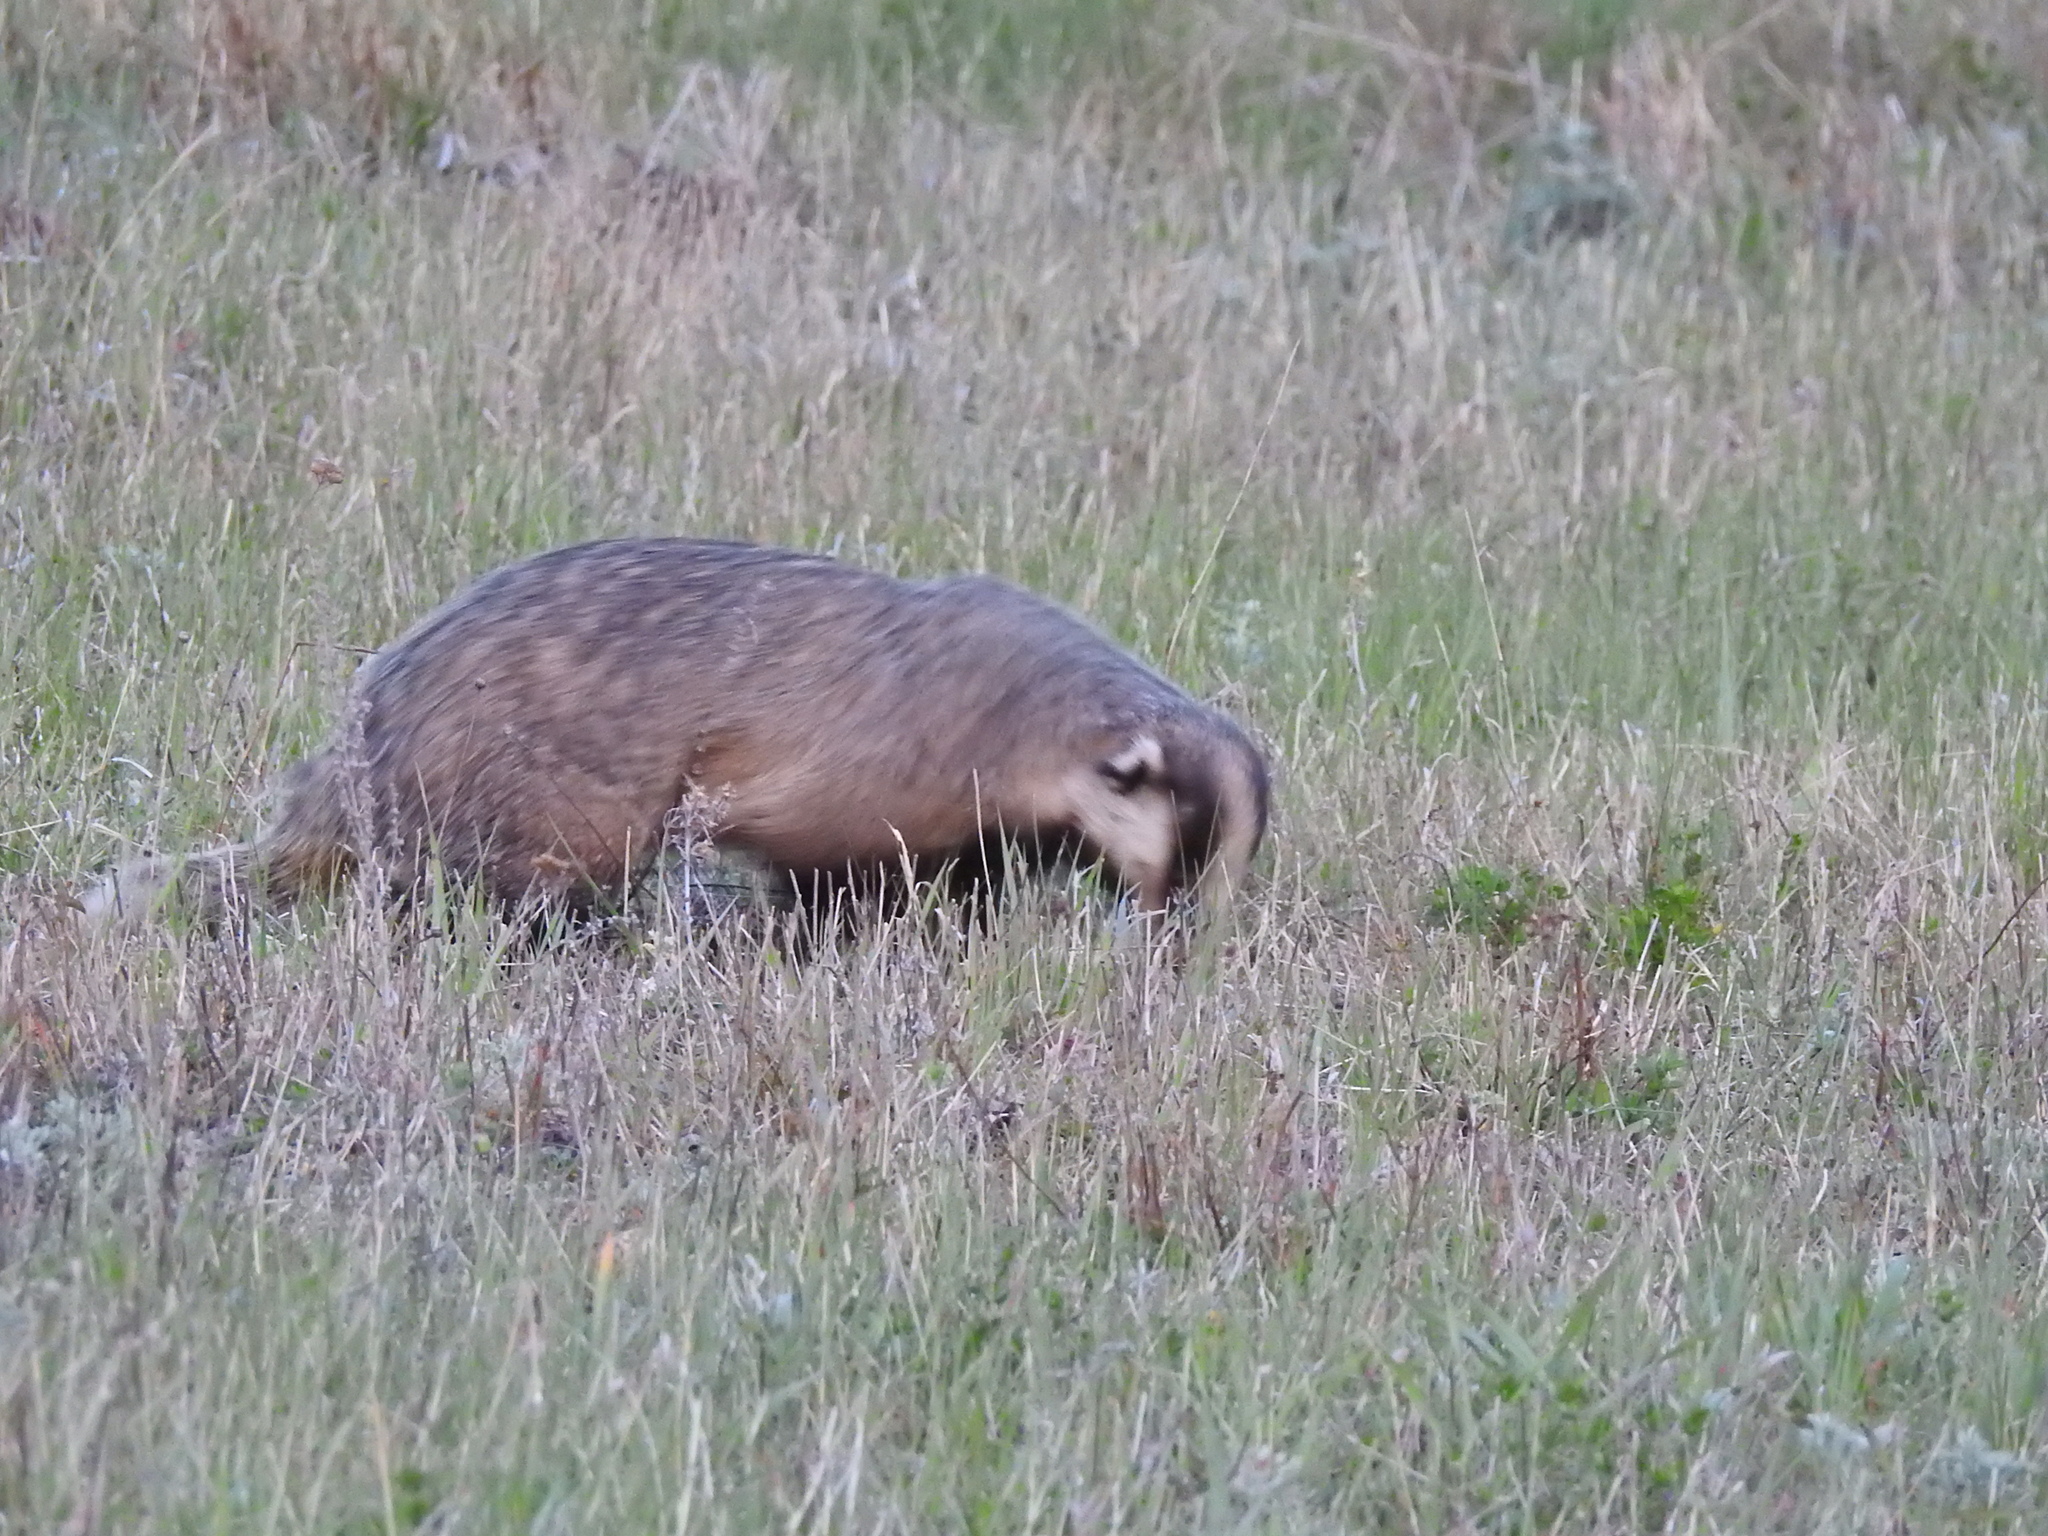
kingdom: Animalia
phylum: Chordata
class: Mammalia
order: Carnivora
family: Mustelidae
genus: Meles
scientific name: Meles leucurus
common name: Asian badger
